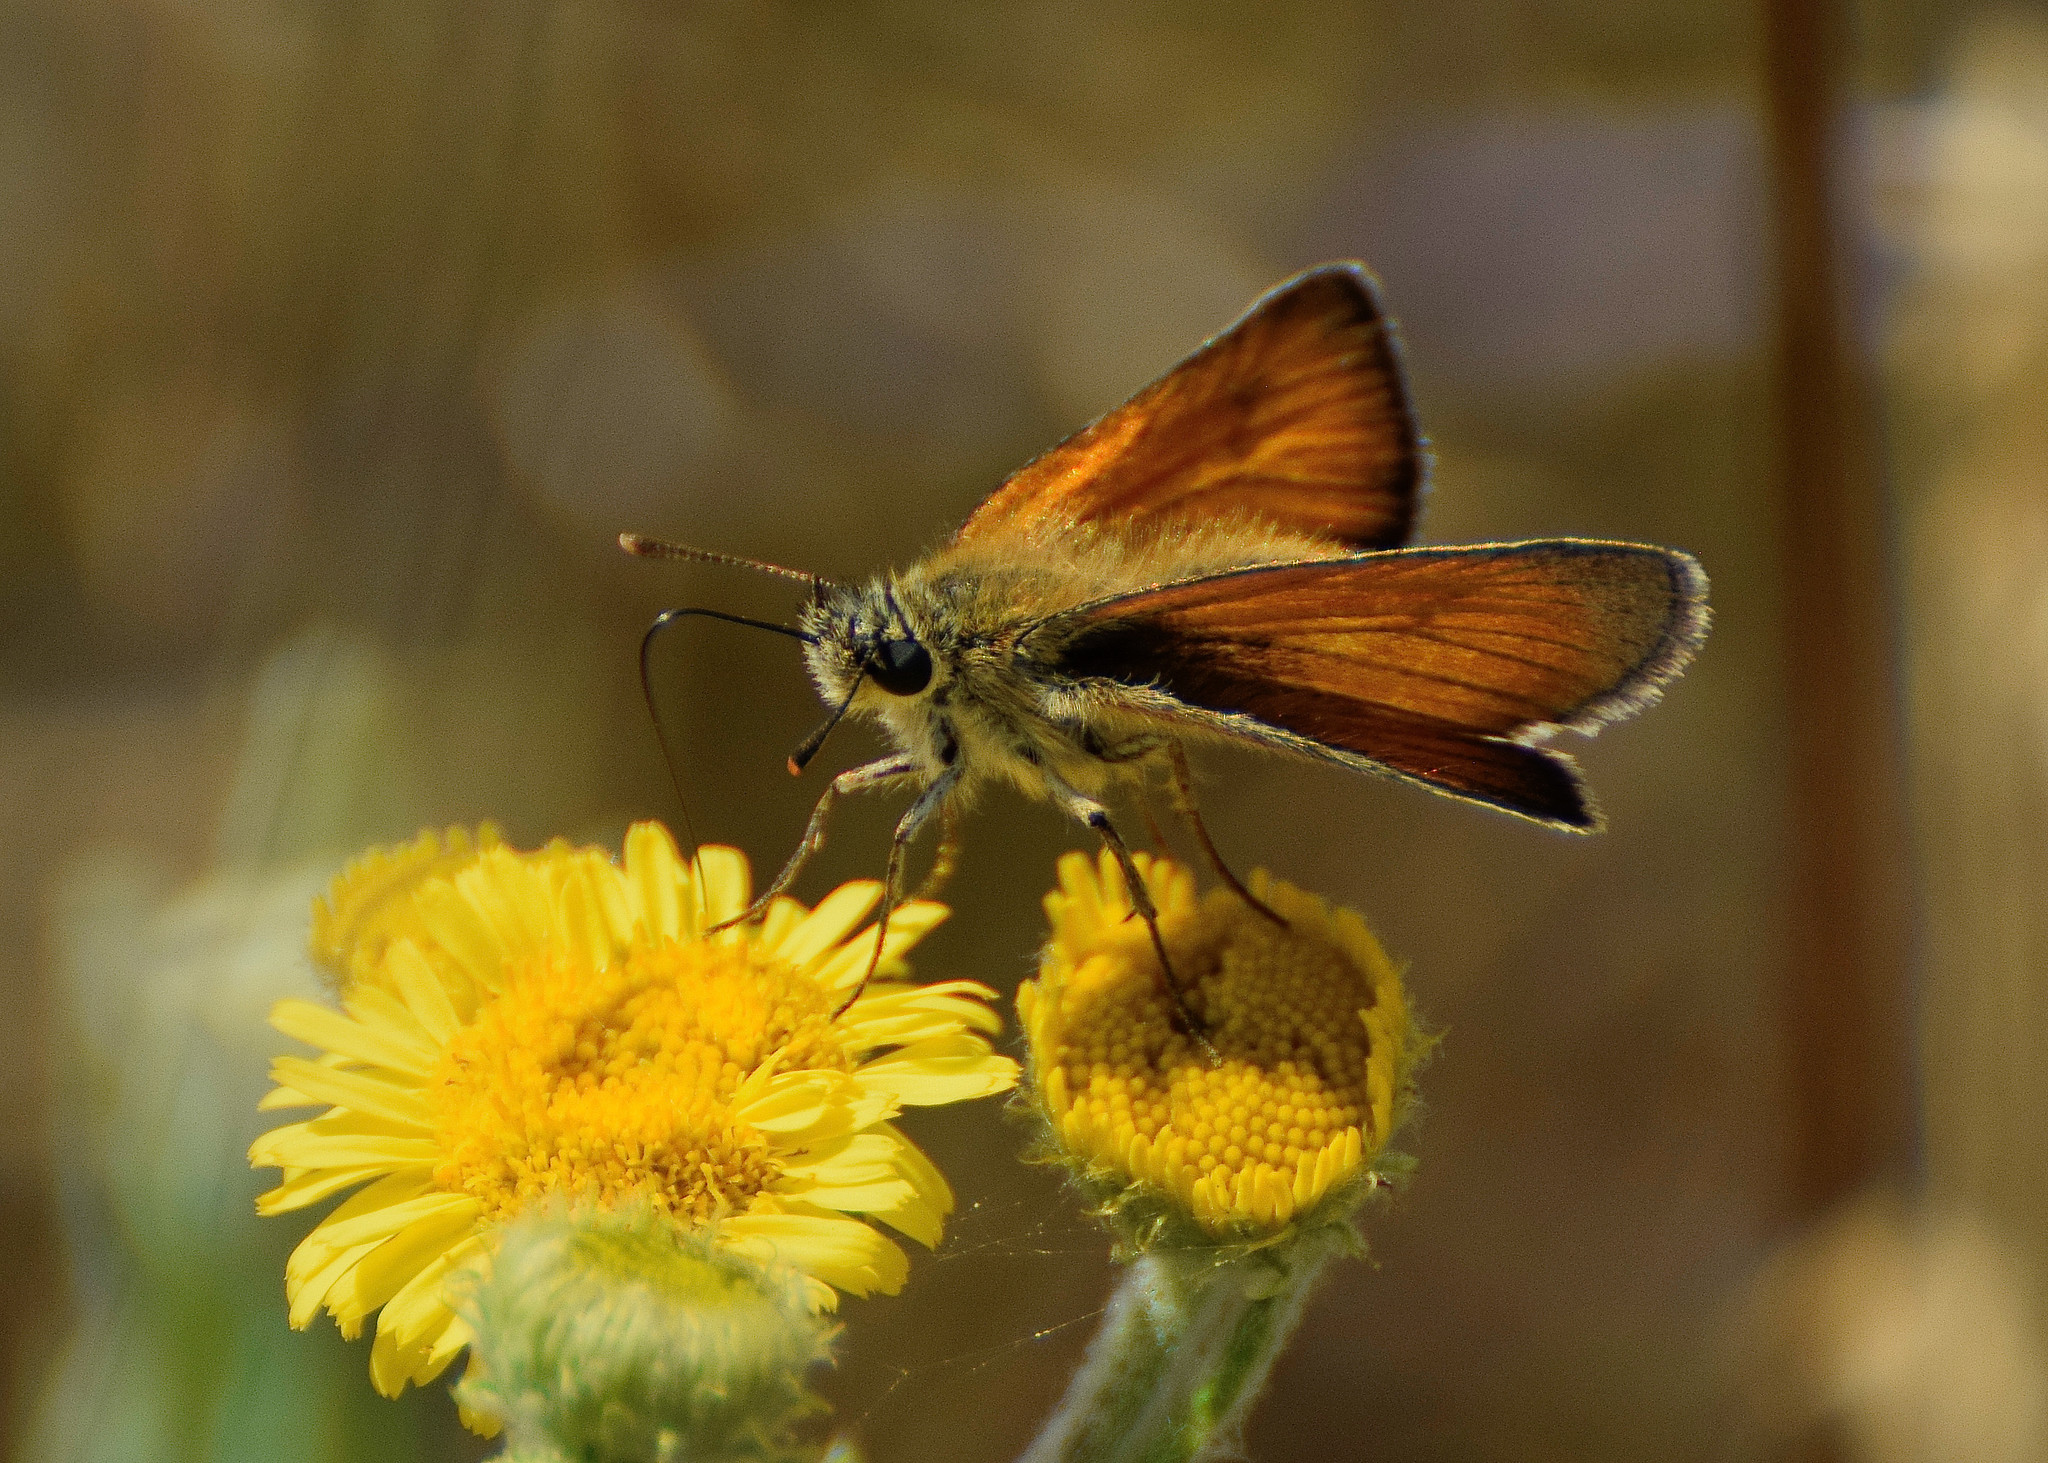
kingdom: Animalia
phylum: Arthropoda
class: Insecta
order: Lepidoptera
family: Hesperiidae
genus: Thymelicus
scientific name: Thymelicus sylvestris
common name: Small skipper
